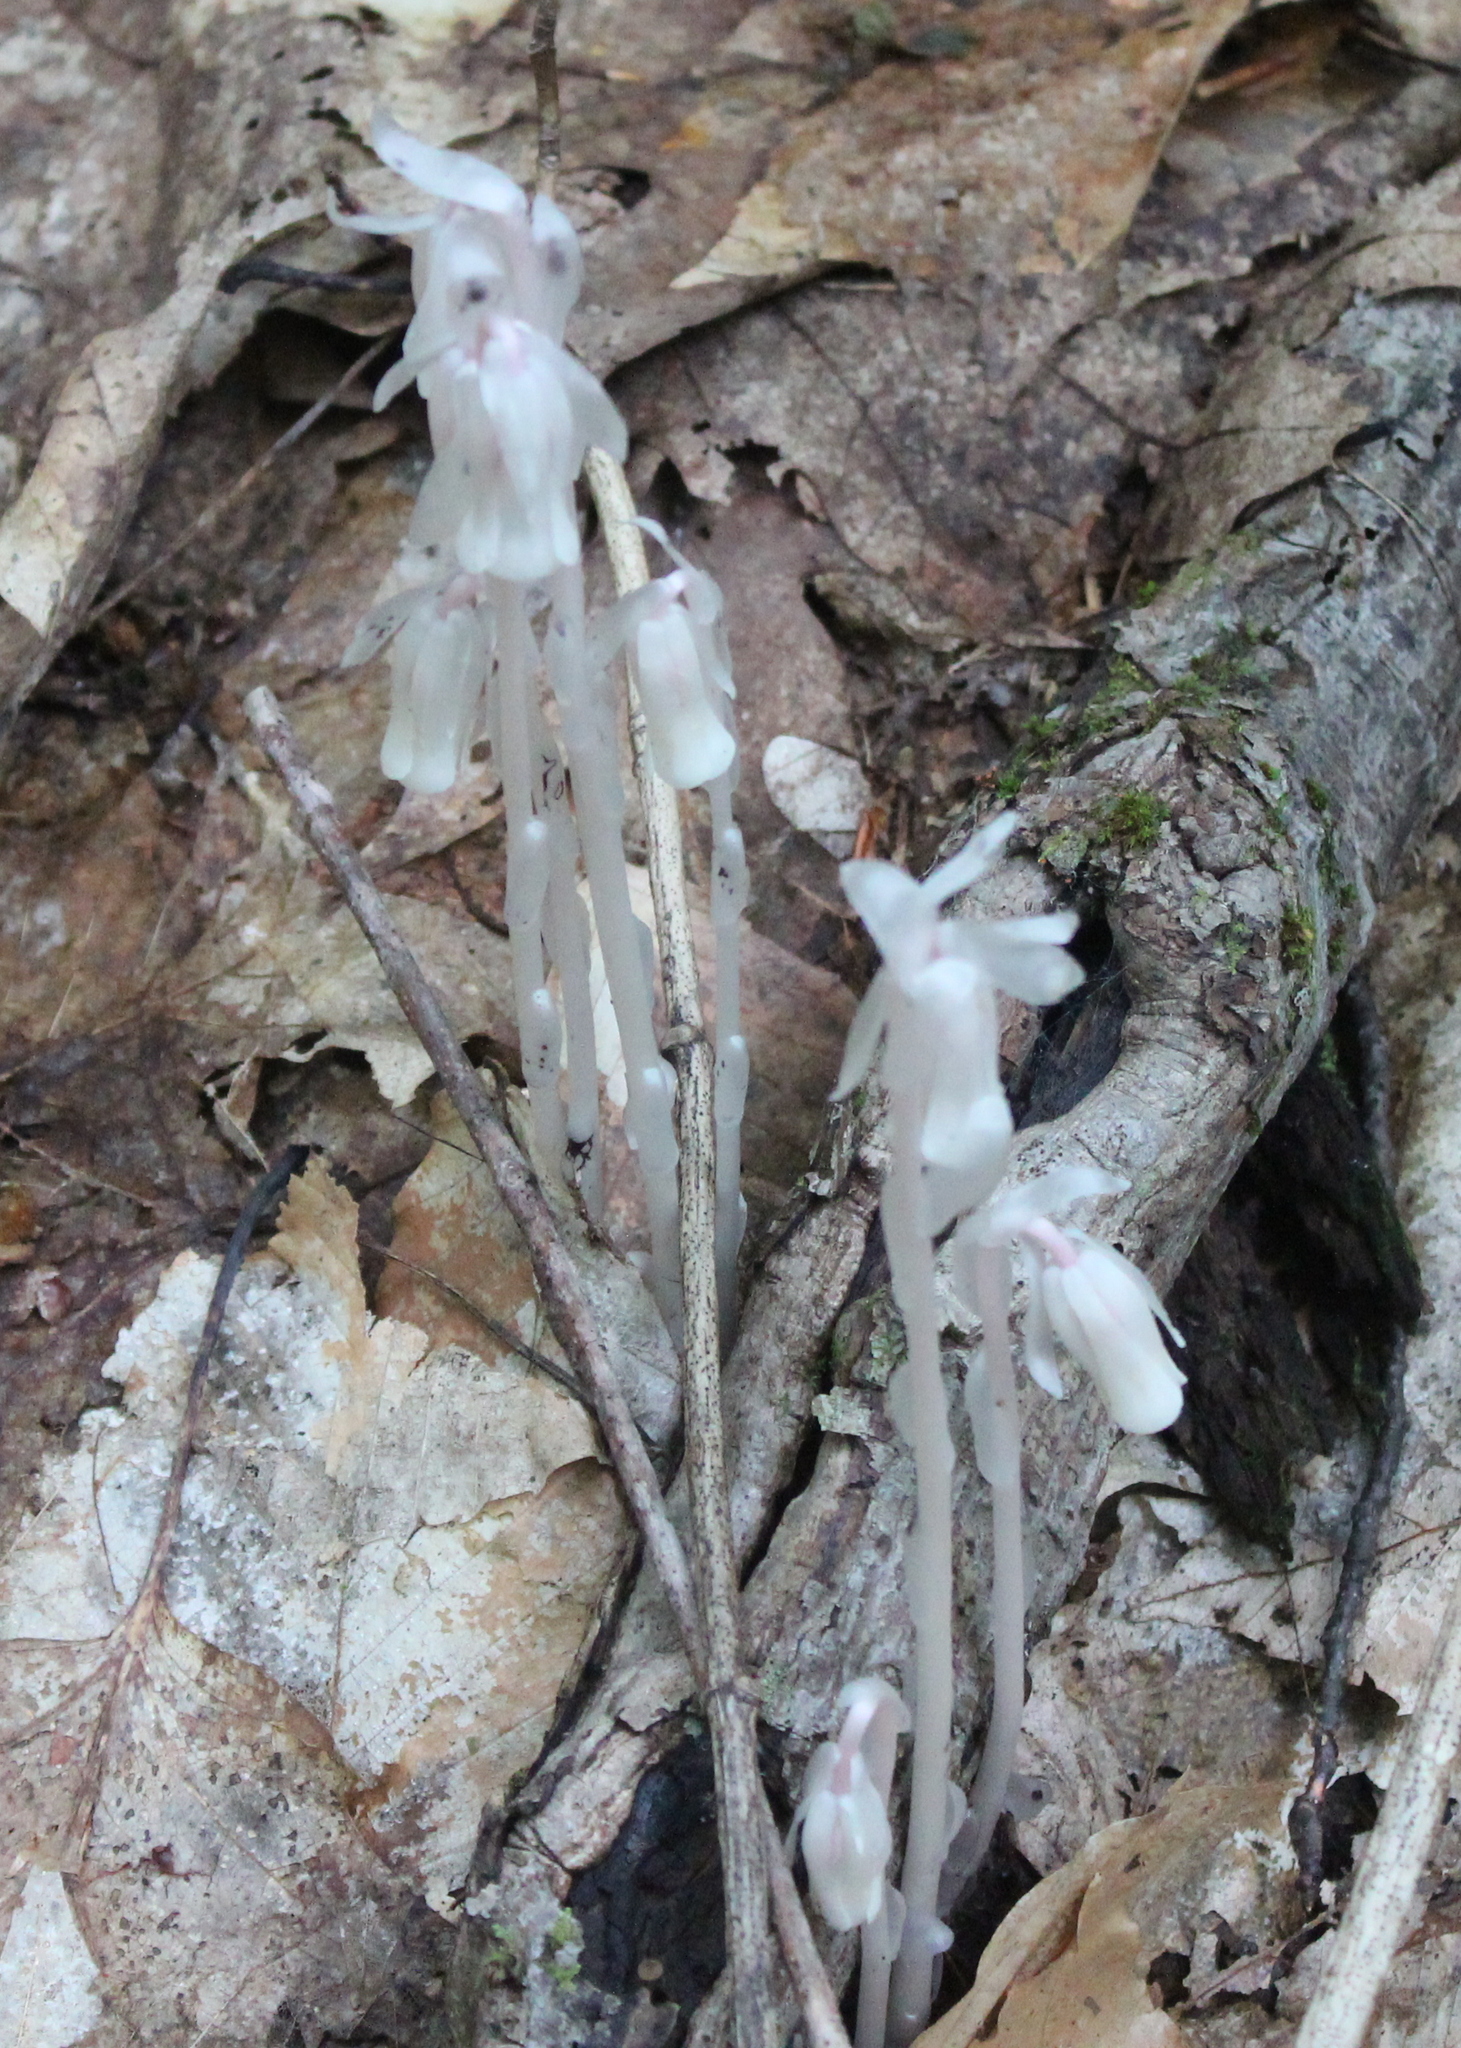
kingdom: Plantae
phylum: Tracheophyta
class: Magnoliopsida
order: Ericales
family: Ericaceae
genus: Monotropa
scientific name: Monotropa uniflora
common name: Convulsion root
